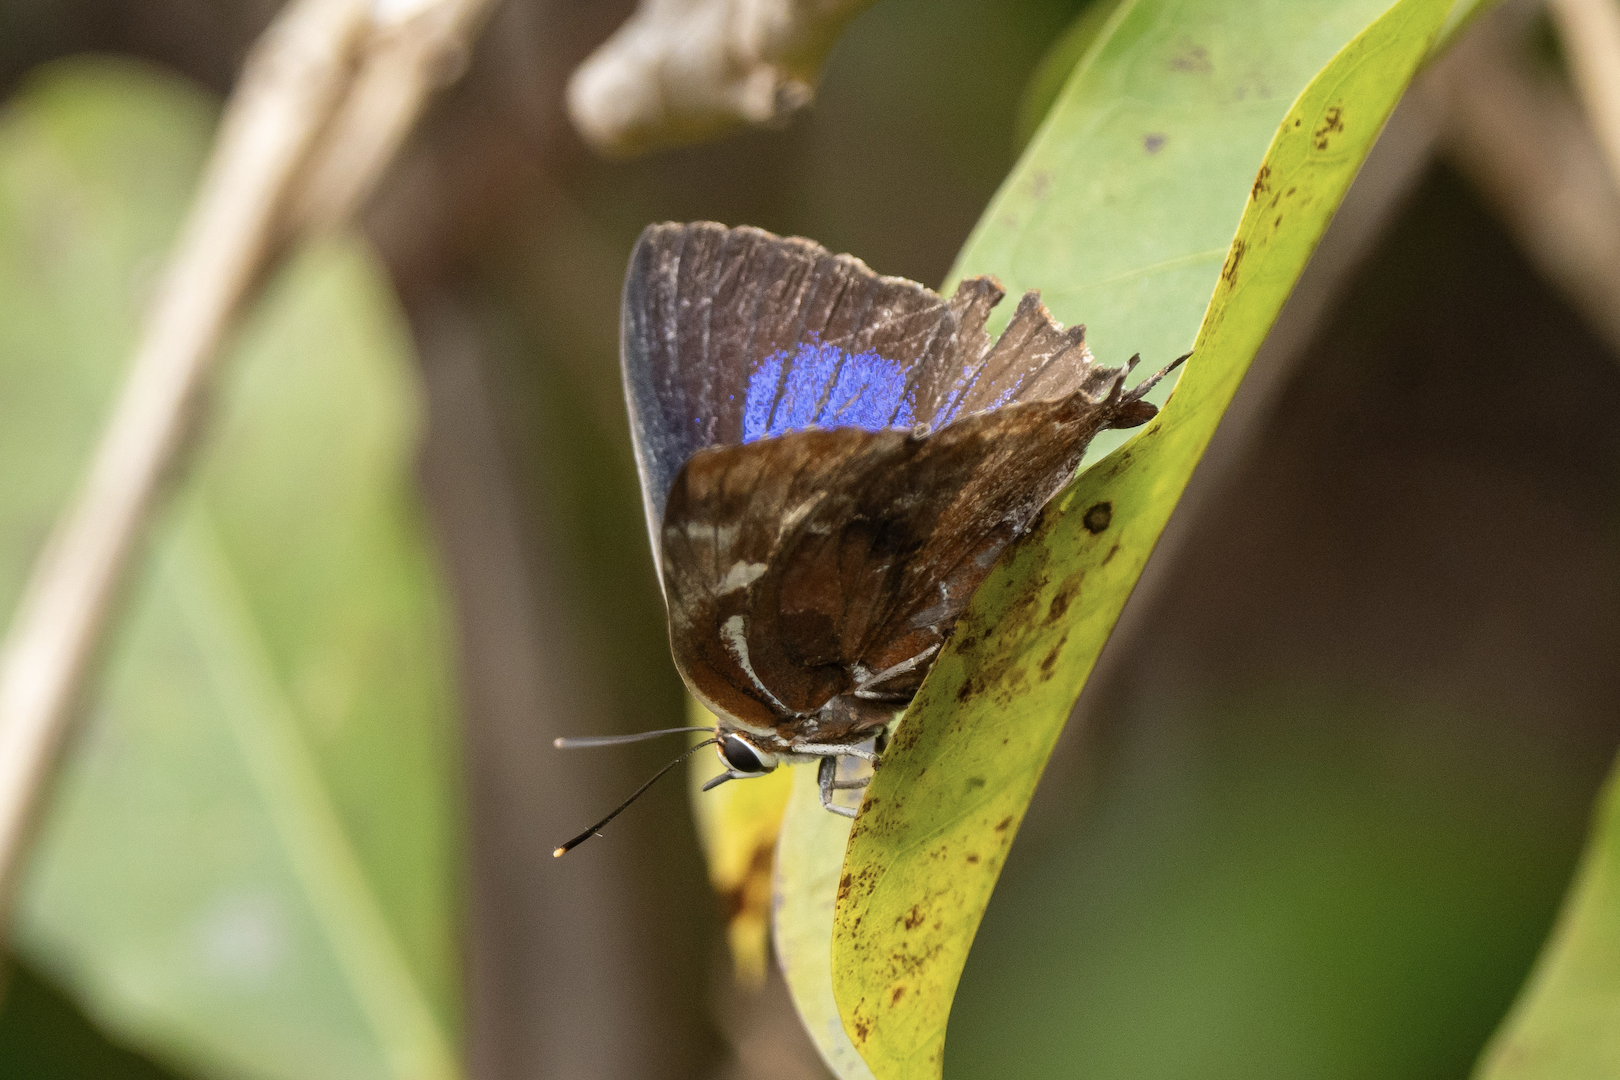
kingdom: Animalia
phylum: Arthropoda
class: Insecta
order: Lepidoptera
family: Lycaenidae
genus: Iraota
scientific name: Iraota timoleon
